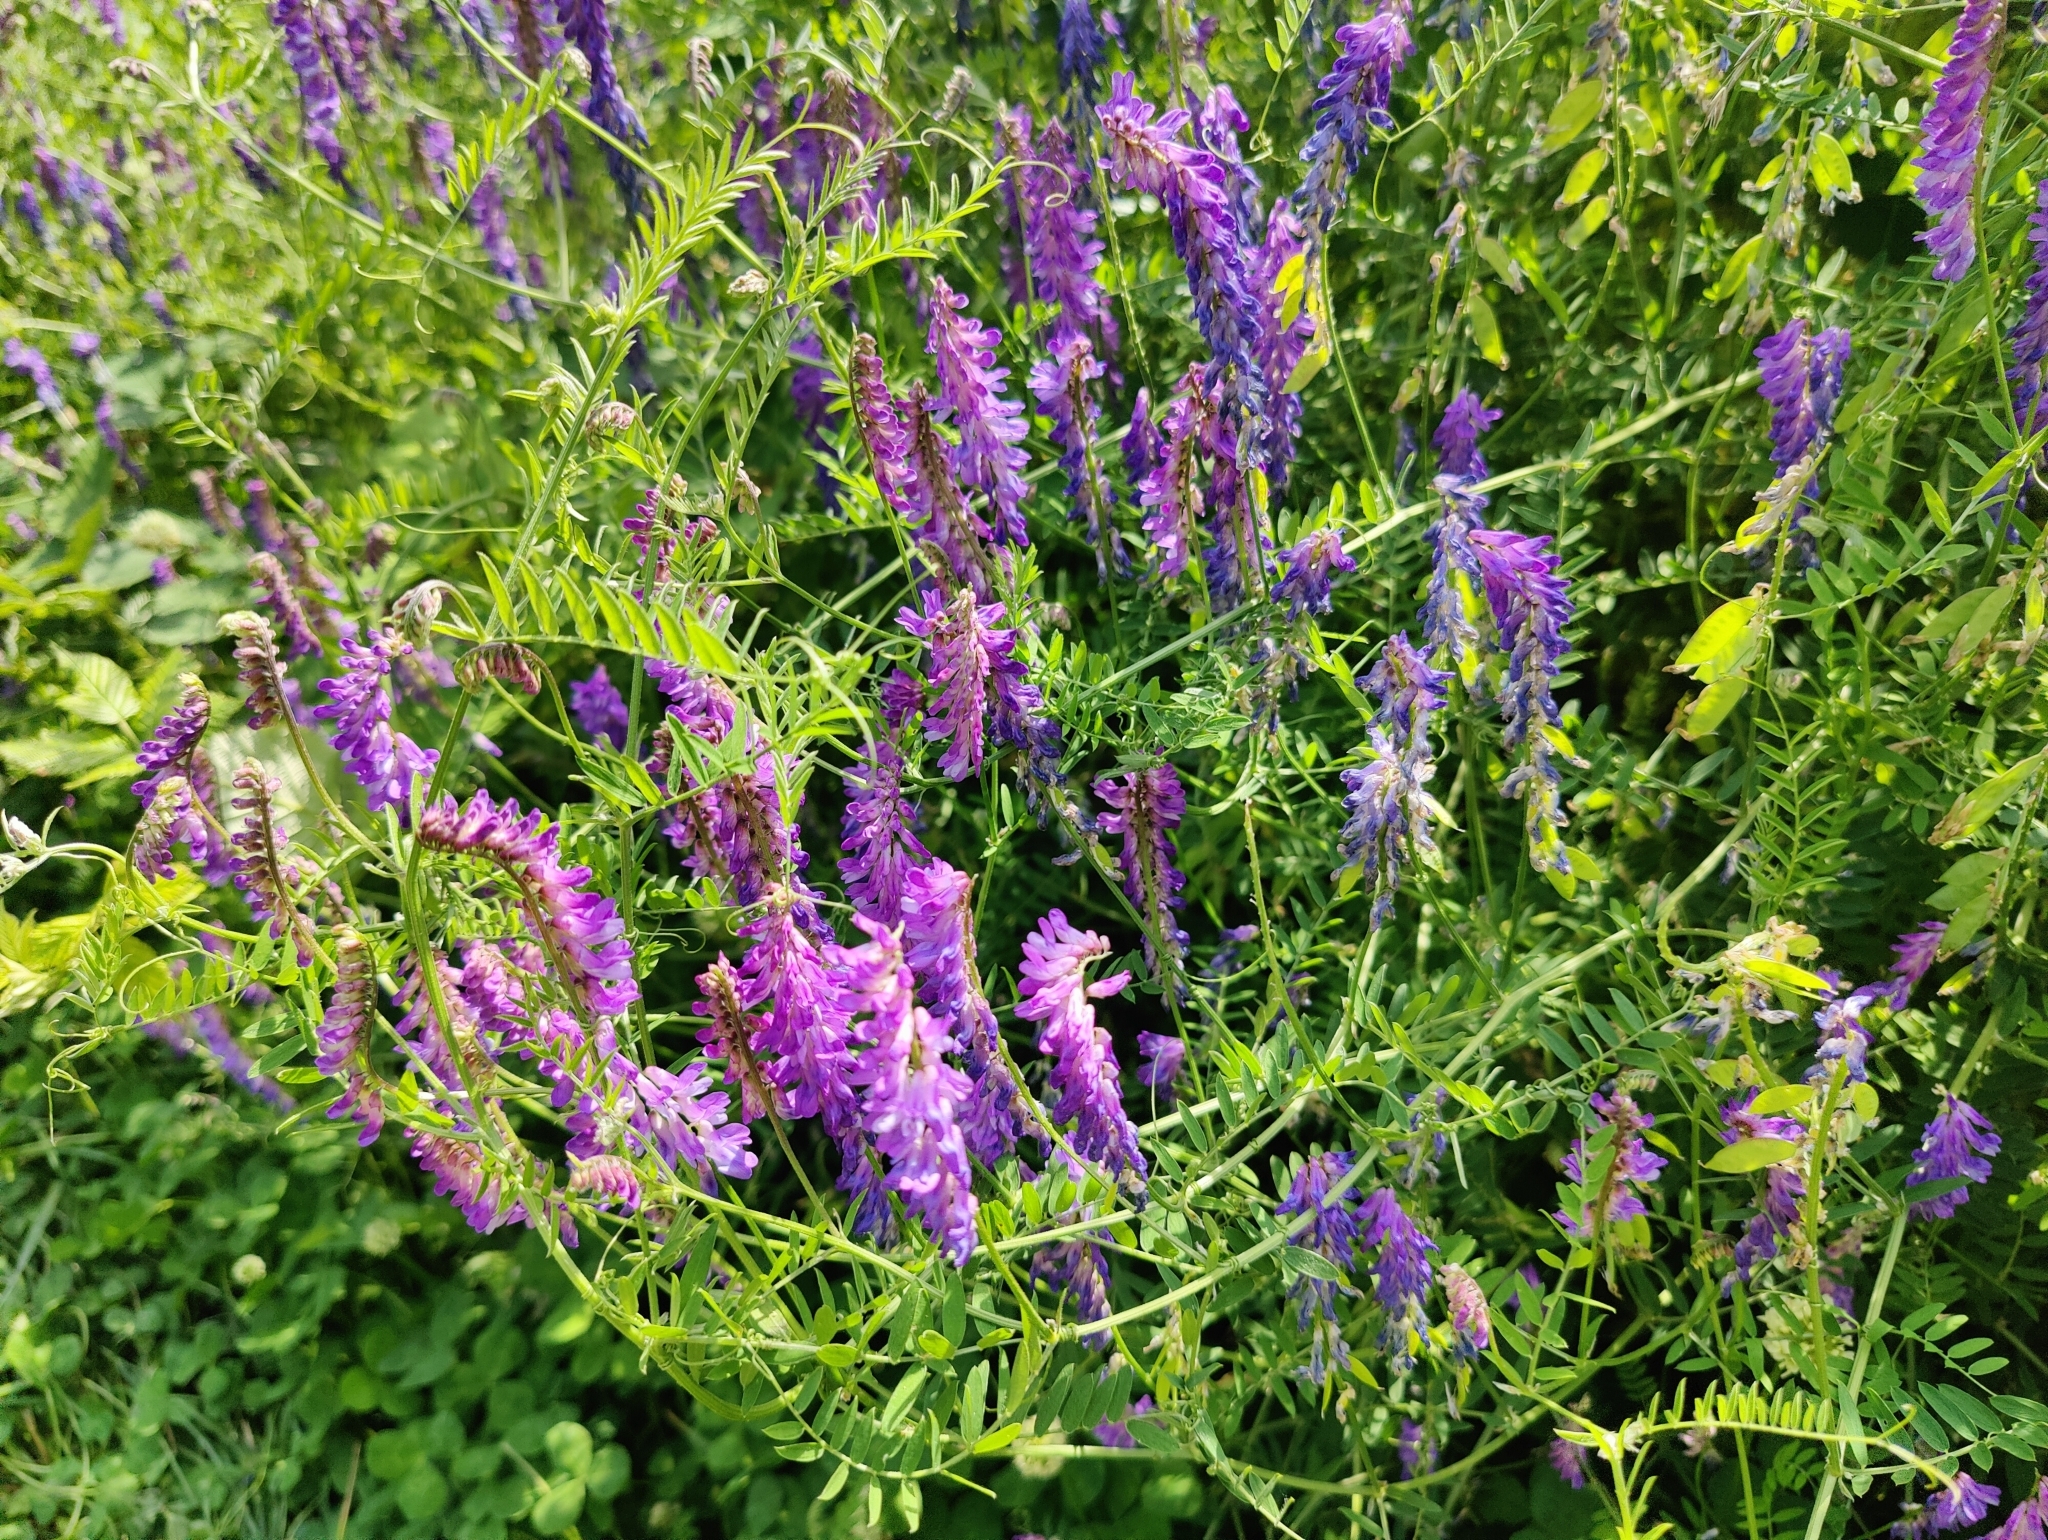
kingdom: Plantae
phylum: Tracheophyta
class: Magnoliopsida
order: Fabales
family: Fabaceae
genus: Vicia
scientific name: Vicia cracca
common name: Bird vetch
